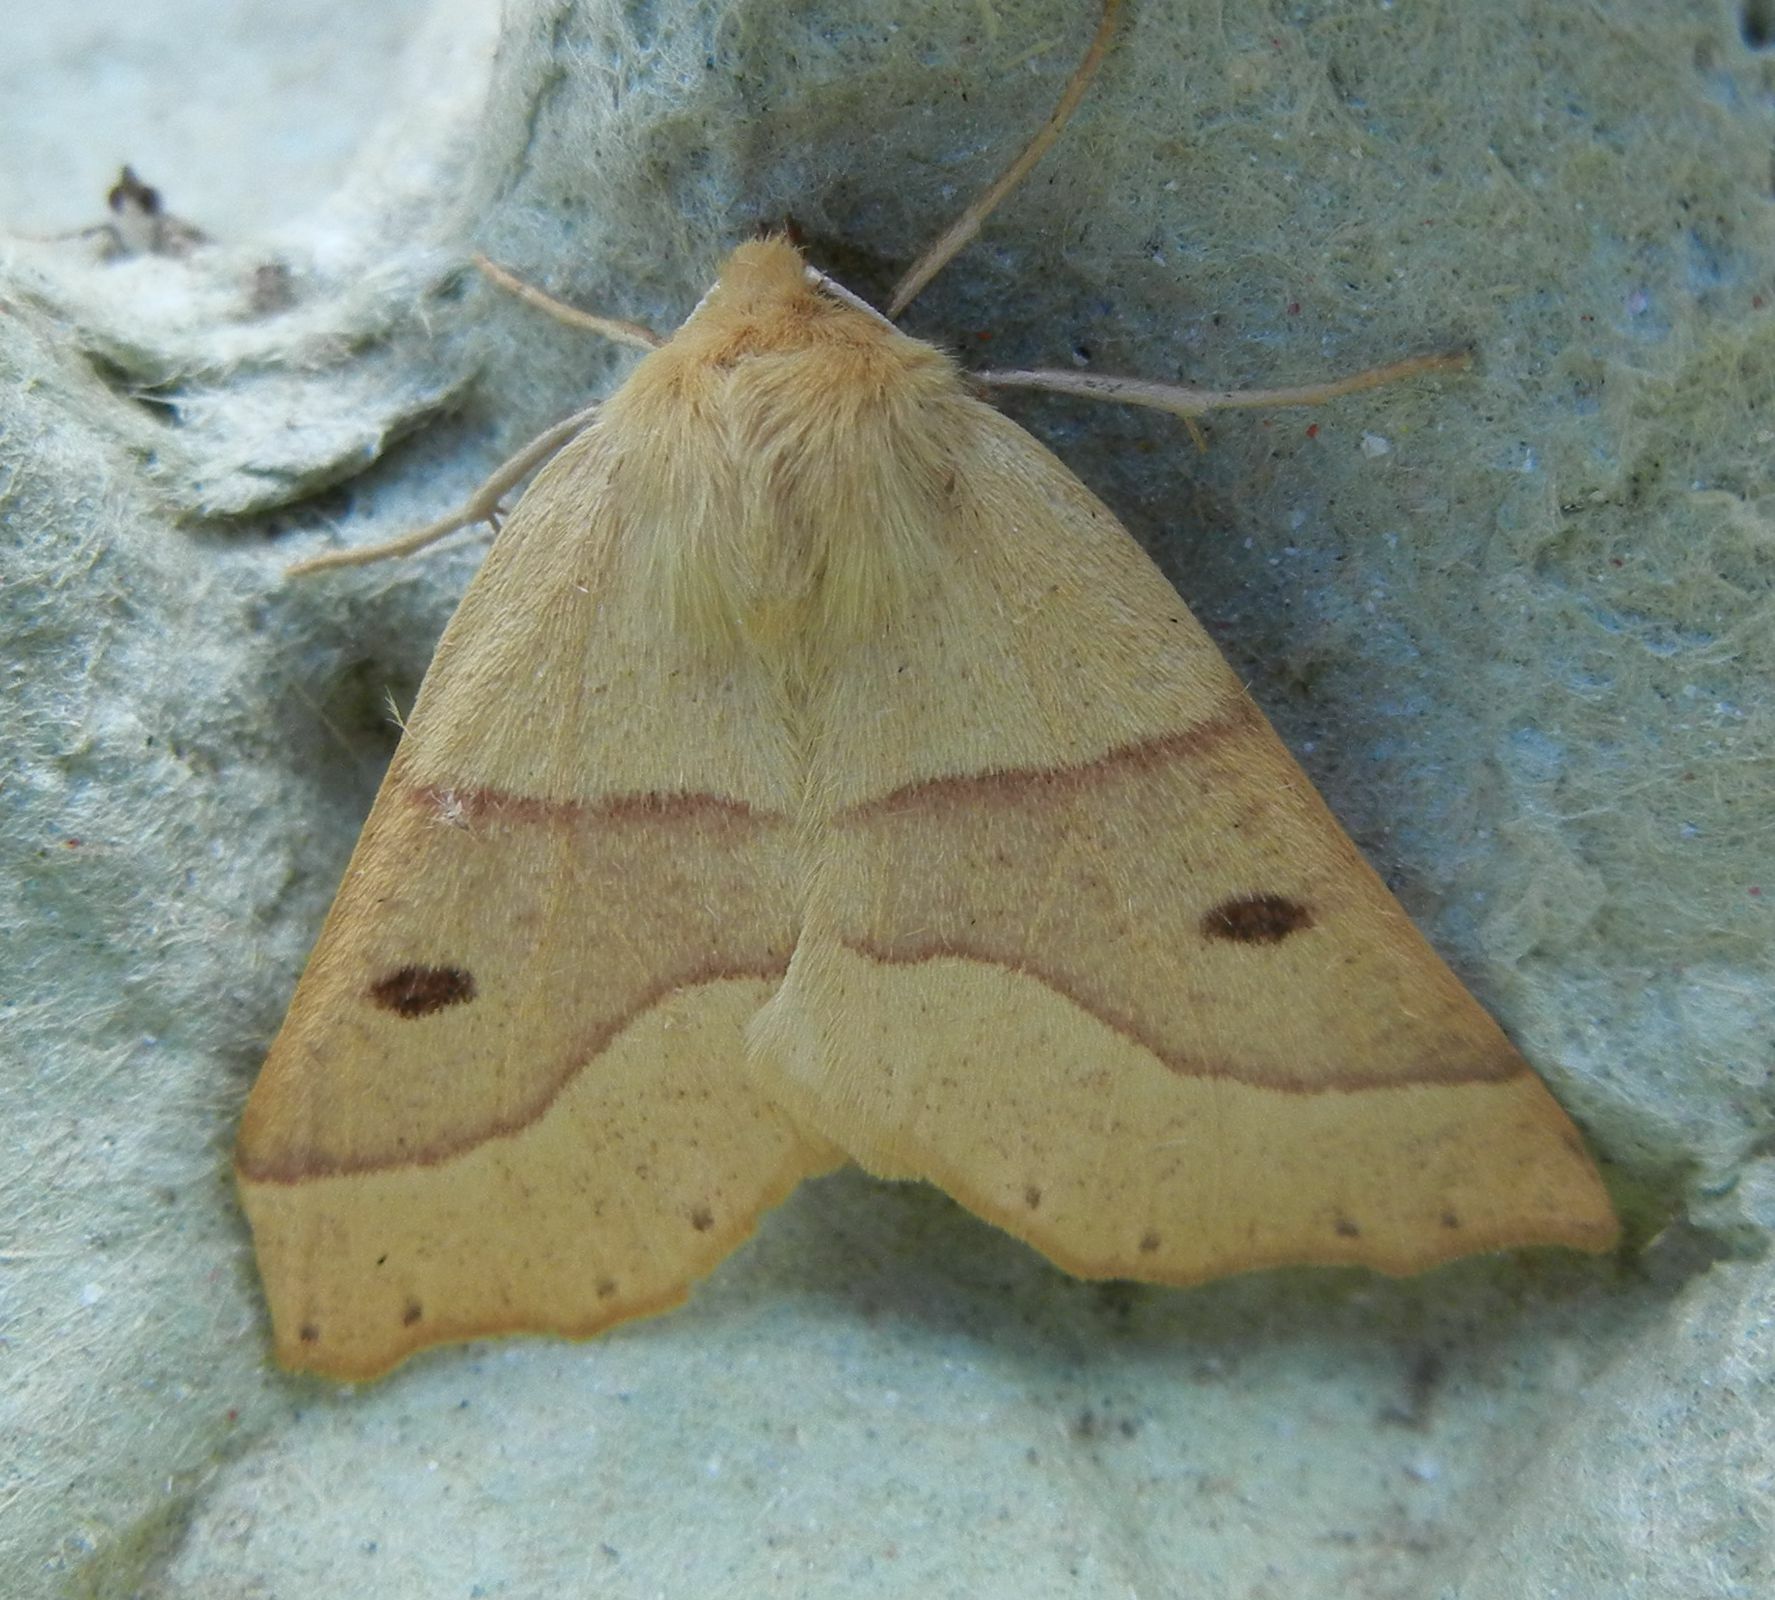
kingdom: Animalia
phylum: Arthropoda
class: Insecta
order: Lepidoptera
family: Geometridae
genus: Crocallis
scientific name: Crocallis elinguaria
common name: Scalloped oak
